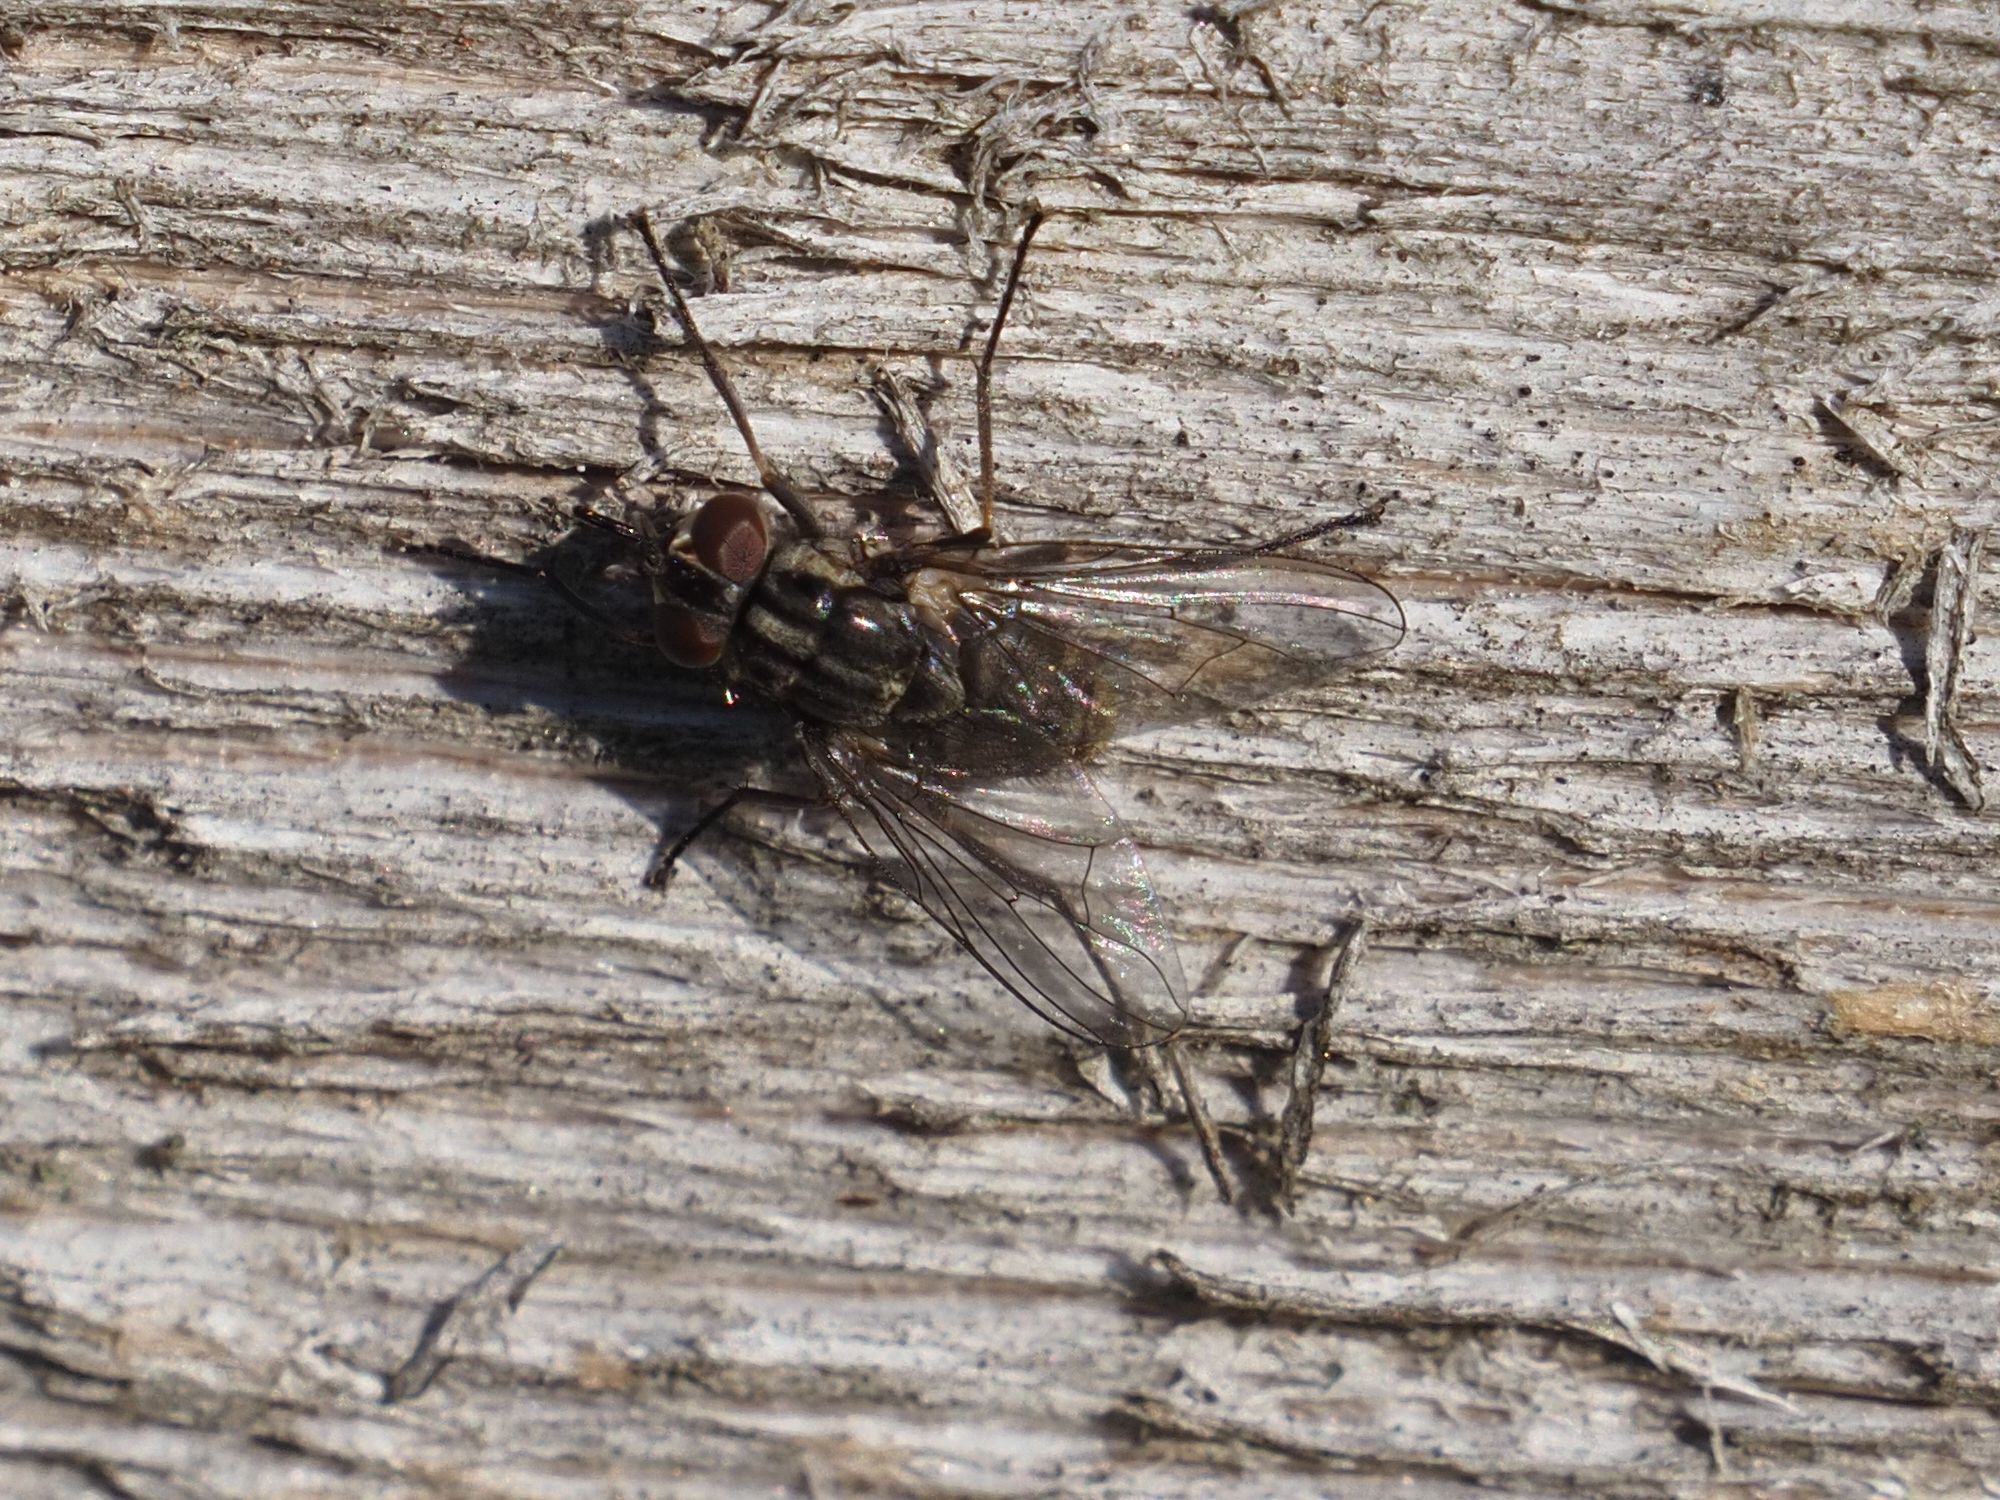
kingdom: Animalia
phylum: Arthropoda
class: Insecta
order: Diptera
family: Muscidae
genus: Stomoxys
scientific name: Stomoxys calcitrans
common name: Stable fly
